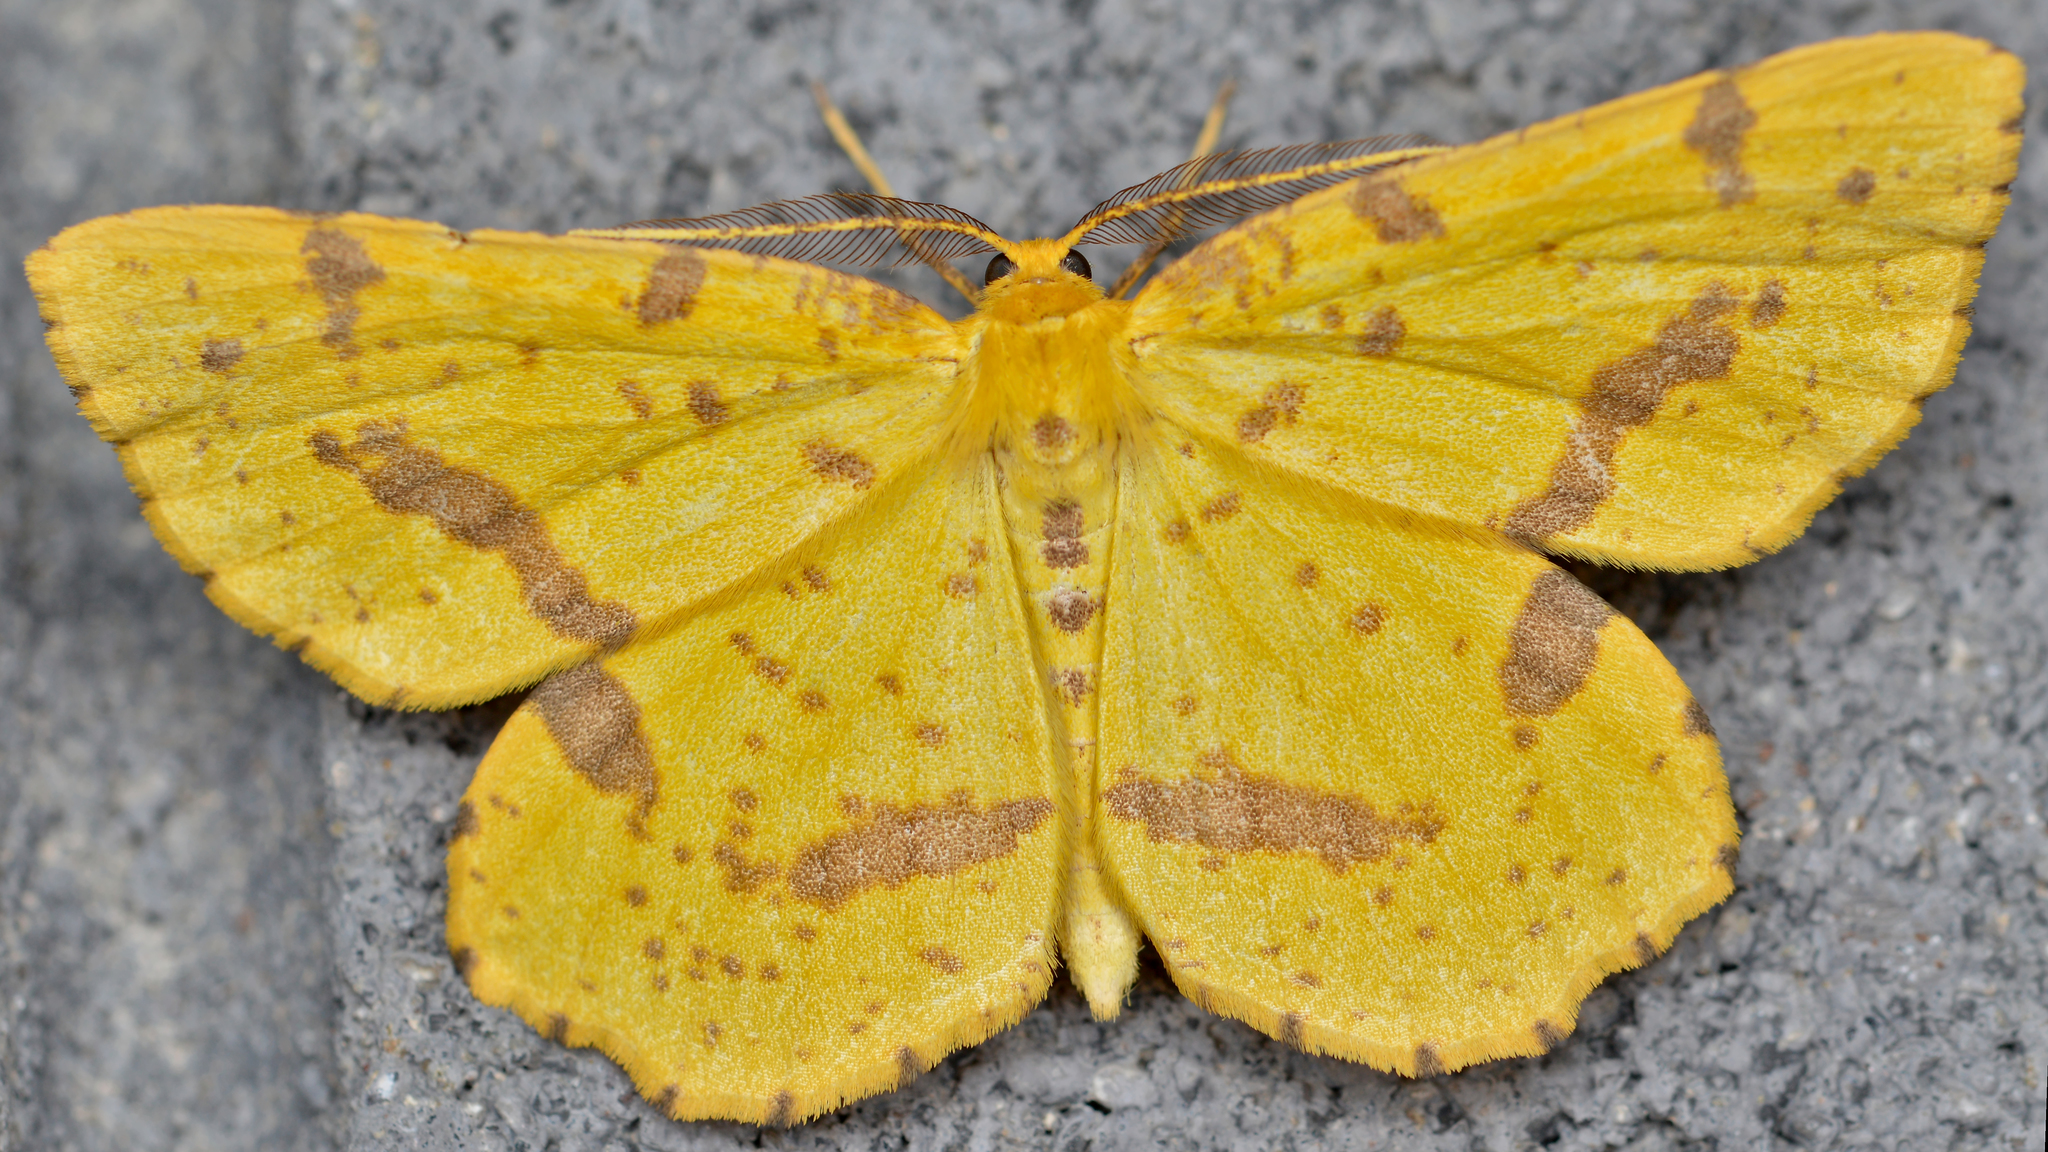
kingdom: Animalia
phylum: Arthropoda
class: Insecta
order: Lepidoptera
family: Geometridae
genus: Xanthotype
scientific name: Xanthotype
